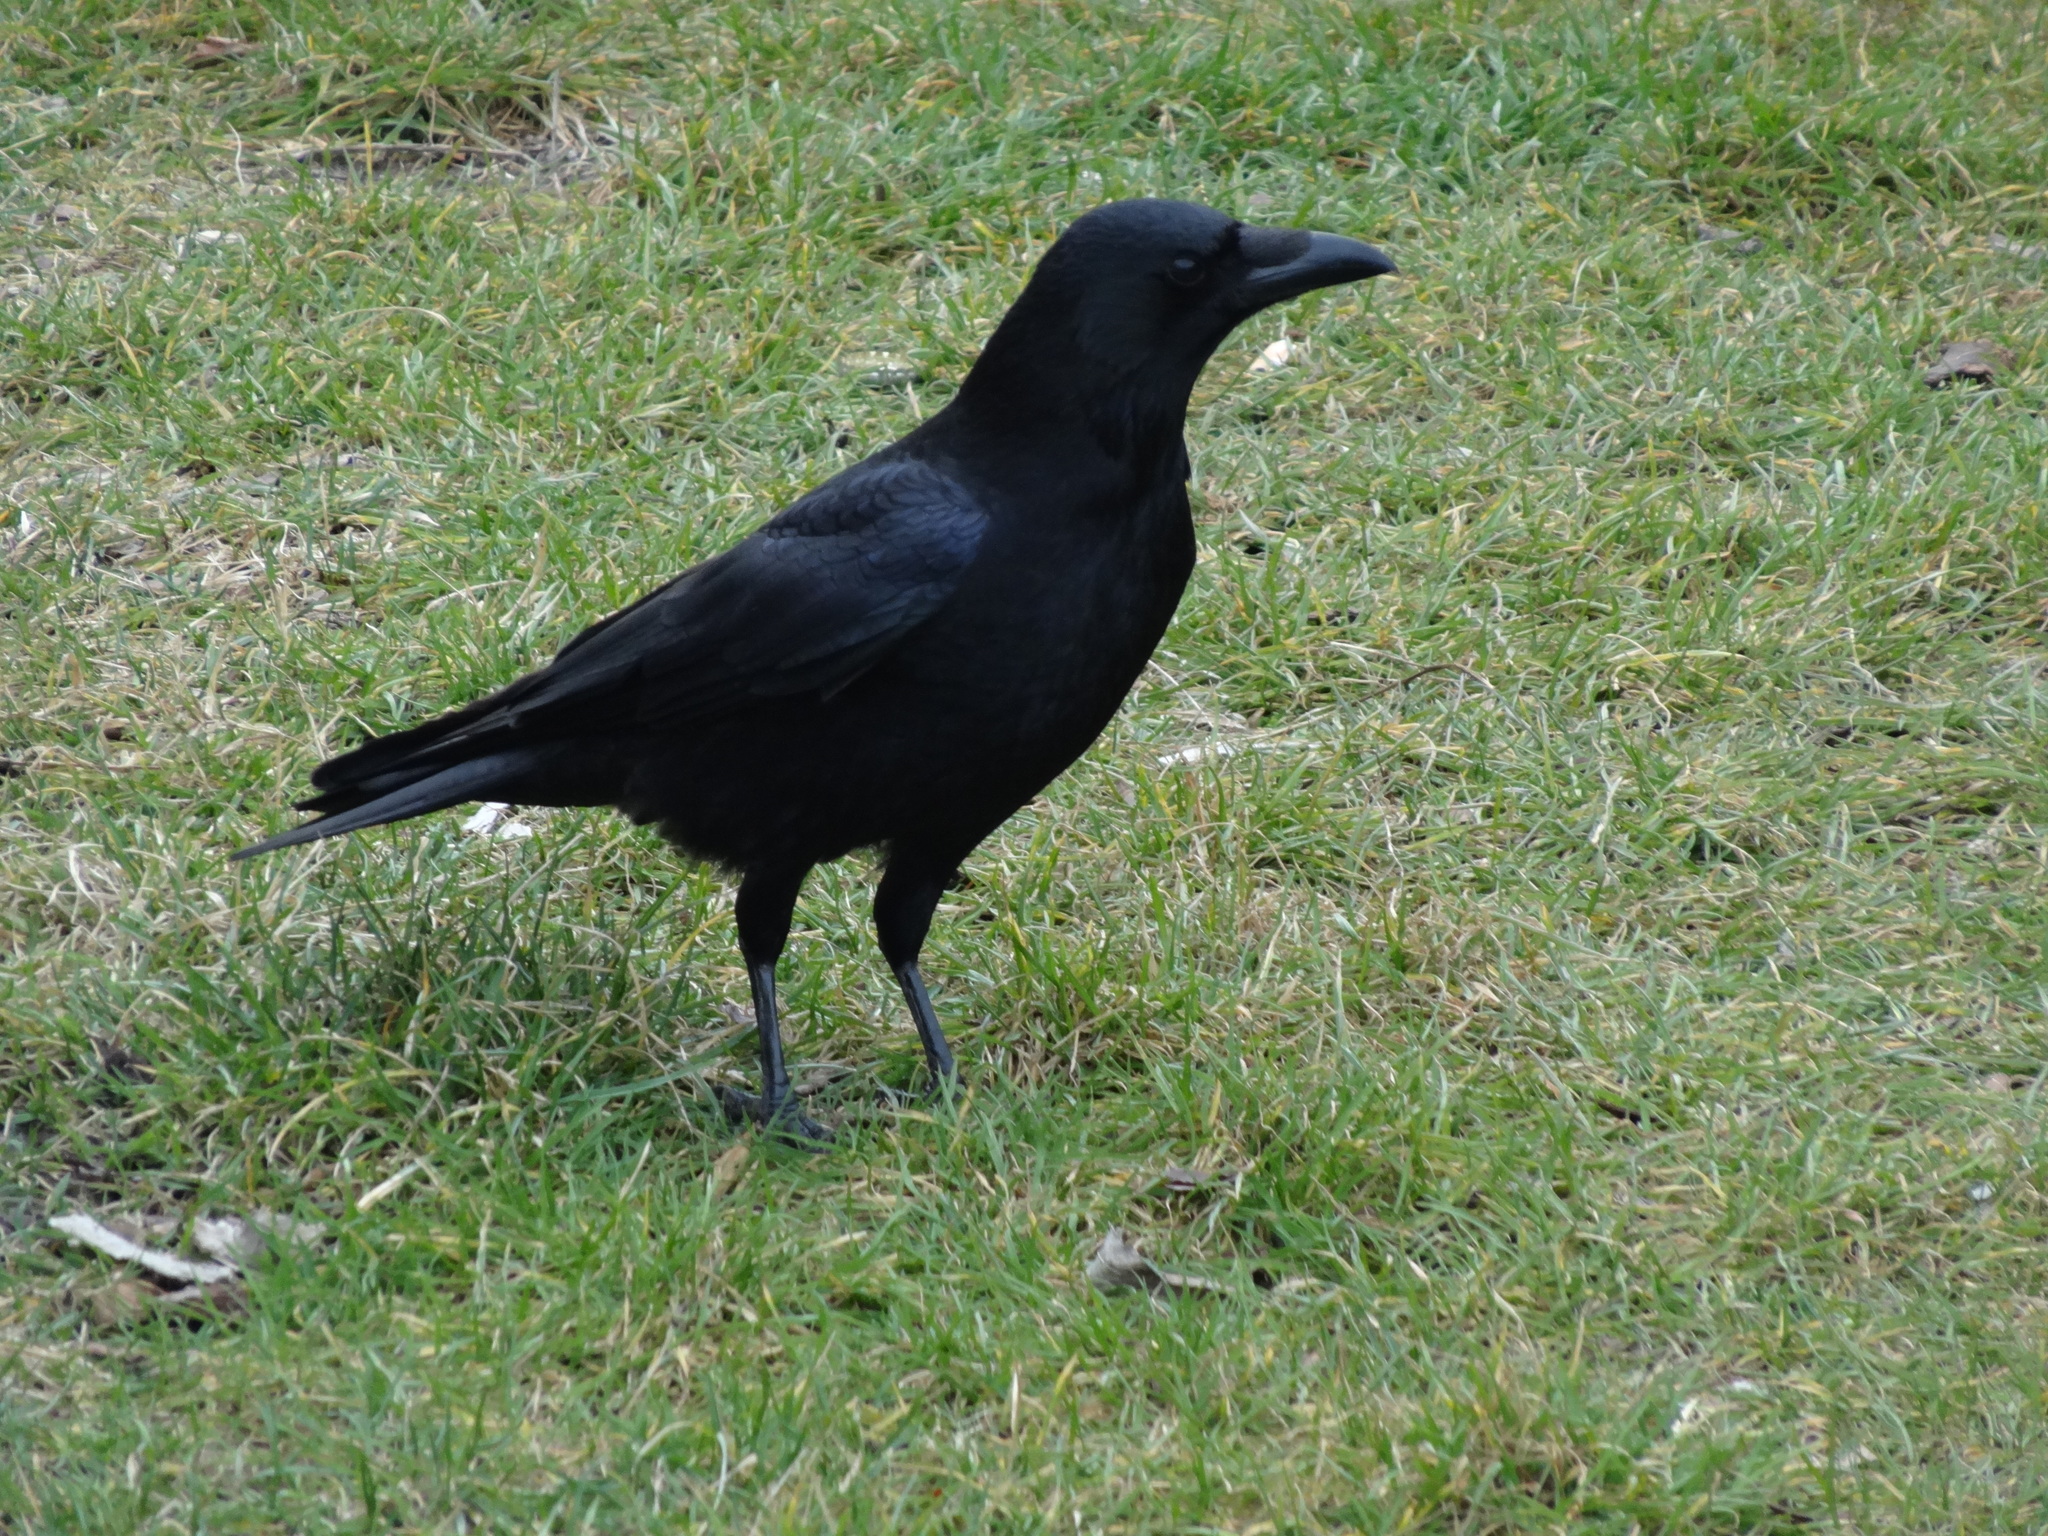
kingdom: Animalia
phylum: Chordata
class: Aves
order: Passeriformes
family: Corvidae
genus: Corvus
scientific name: Corvus corone
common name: Carrion crow
